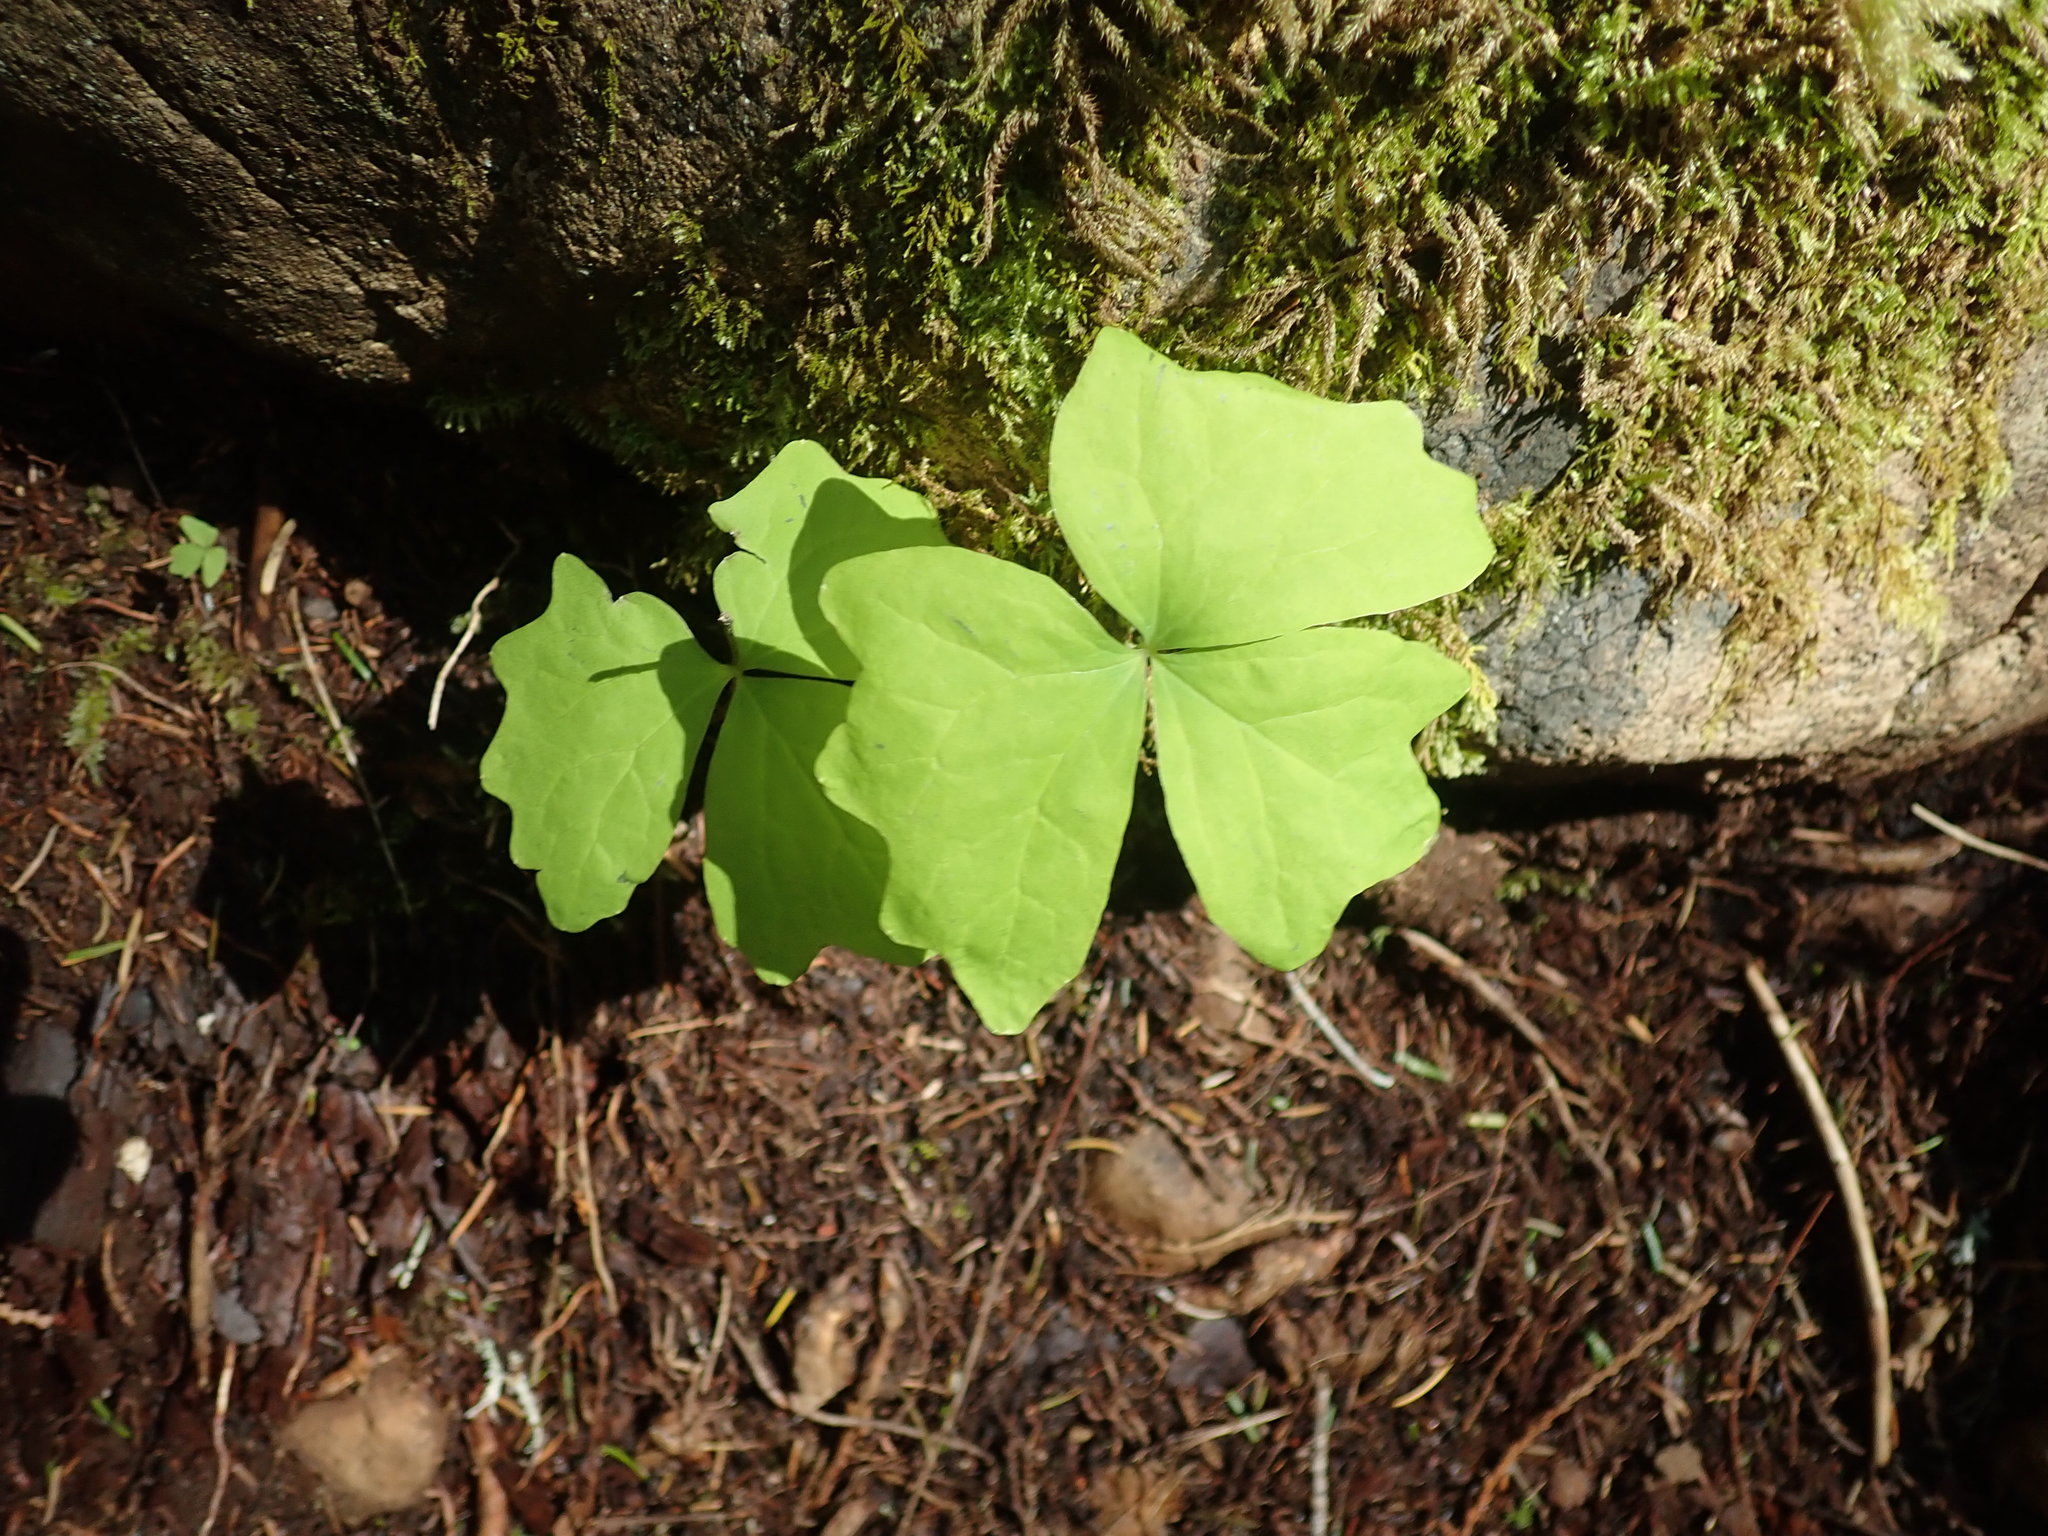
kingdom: Plantae
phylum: Tracheophyta
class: Magnoliopsida
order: Ranunculales
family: Berberidaceae
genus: Achlys
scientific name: Achlys triphylla
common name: Vanilla-leaf
